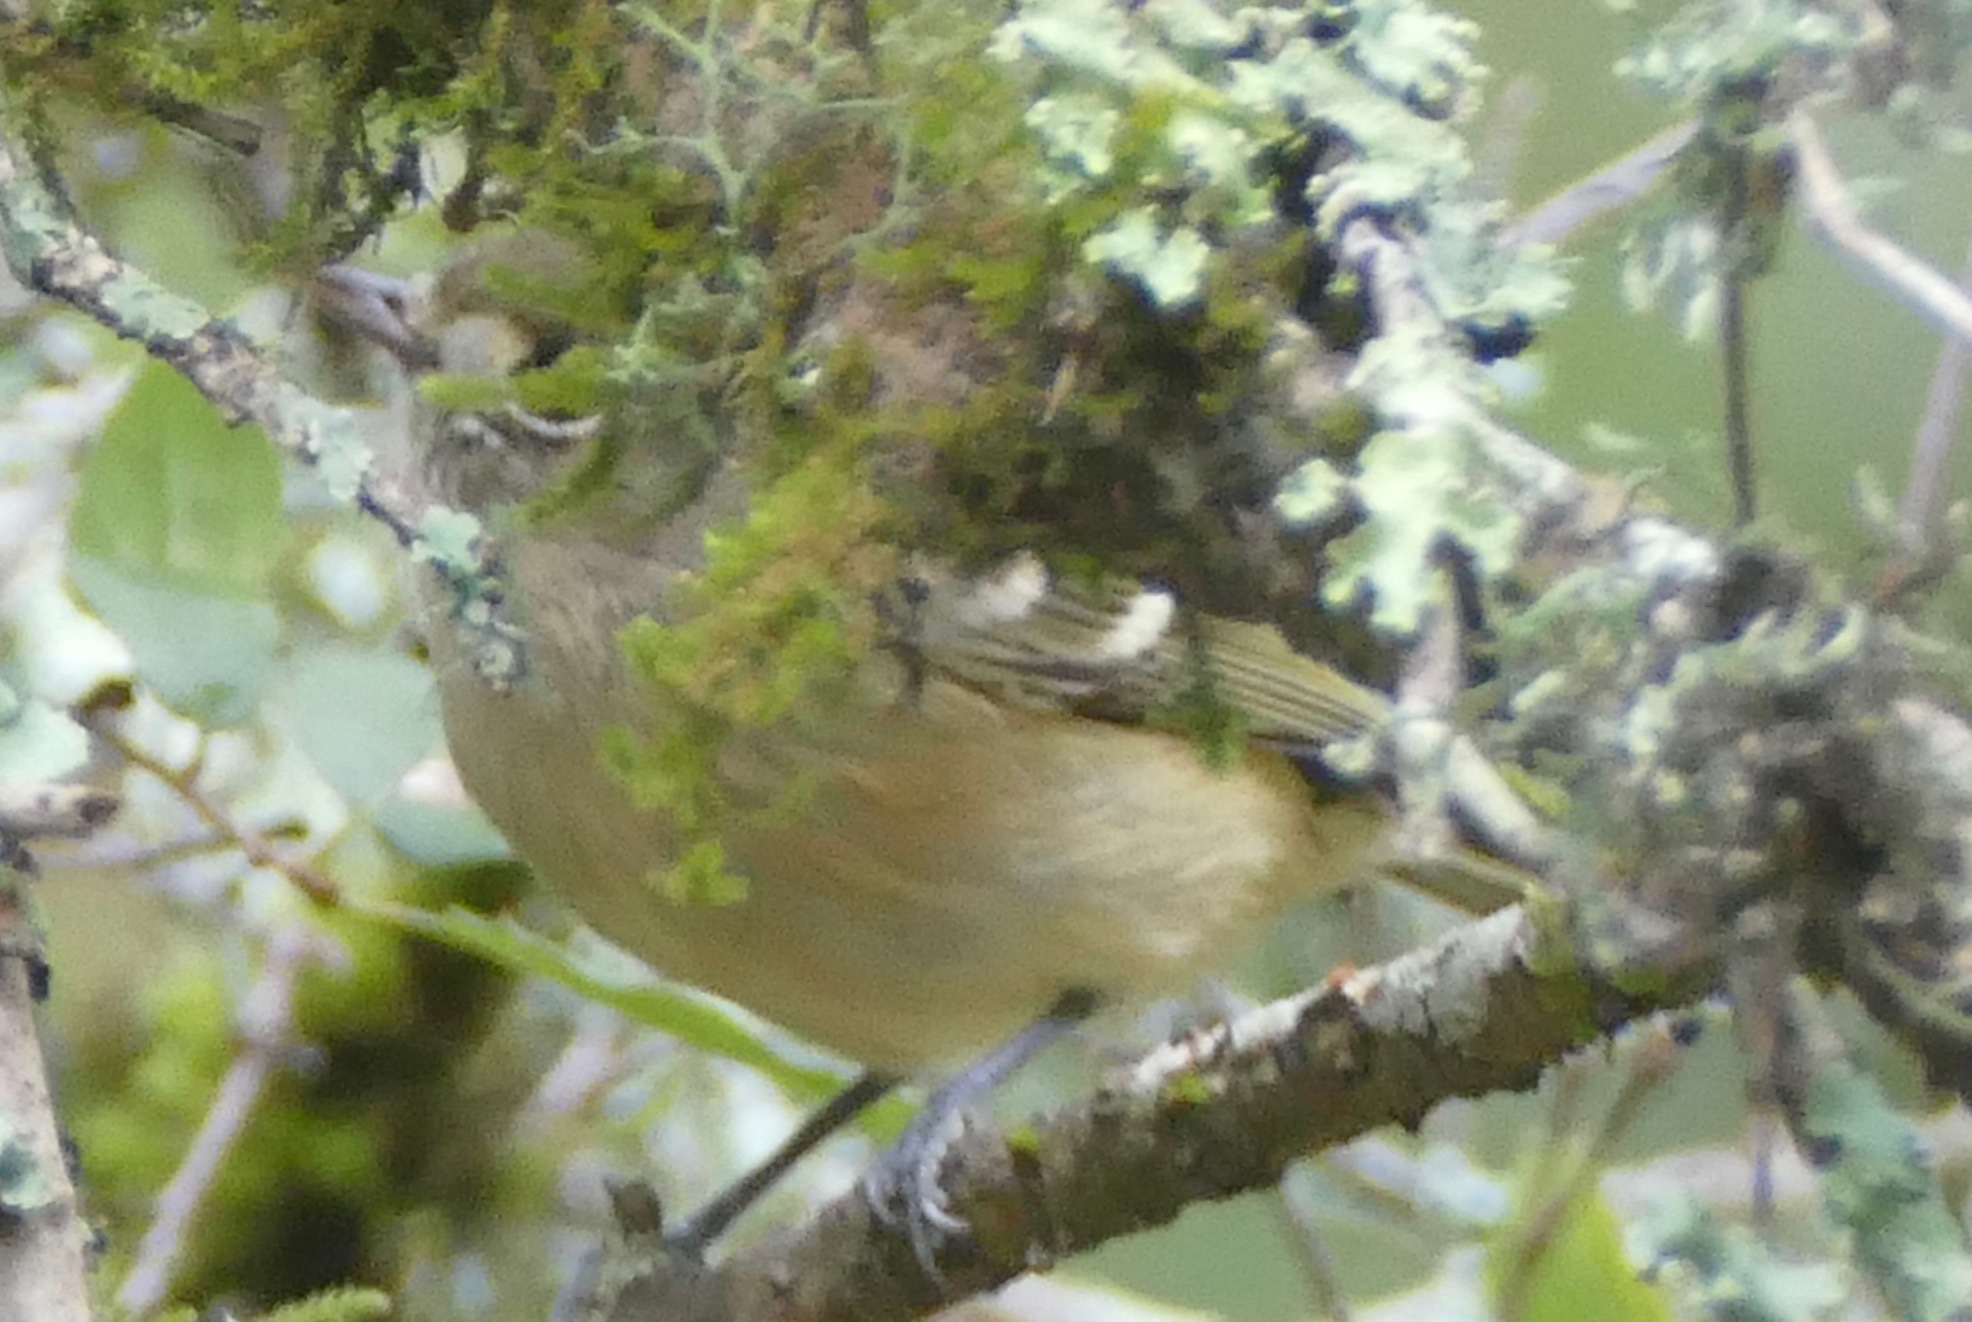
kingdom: Animalia
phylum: Chordata
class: Aves
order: Passeriformes
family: Vireonidae
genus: Vireo
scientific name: Vireo huttoni
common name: Hutton's vireo
